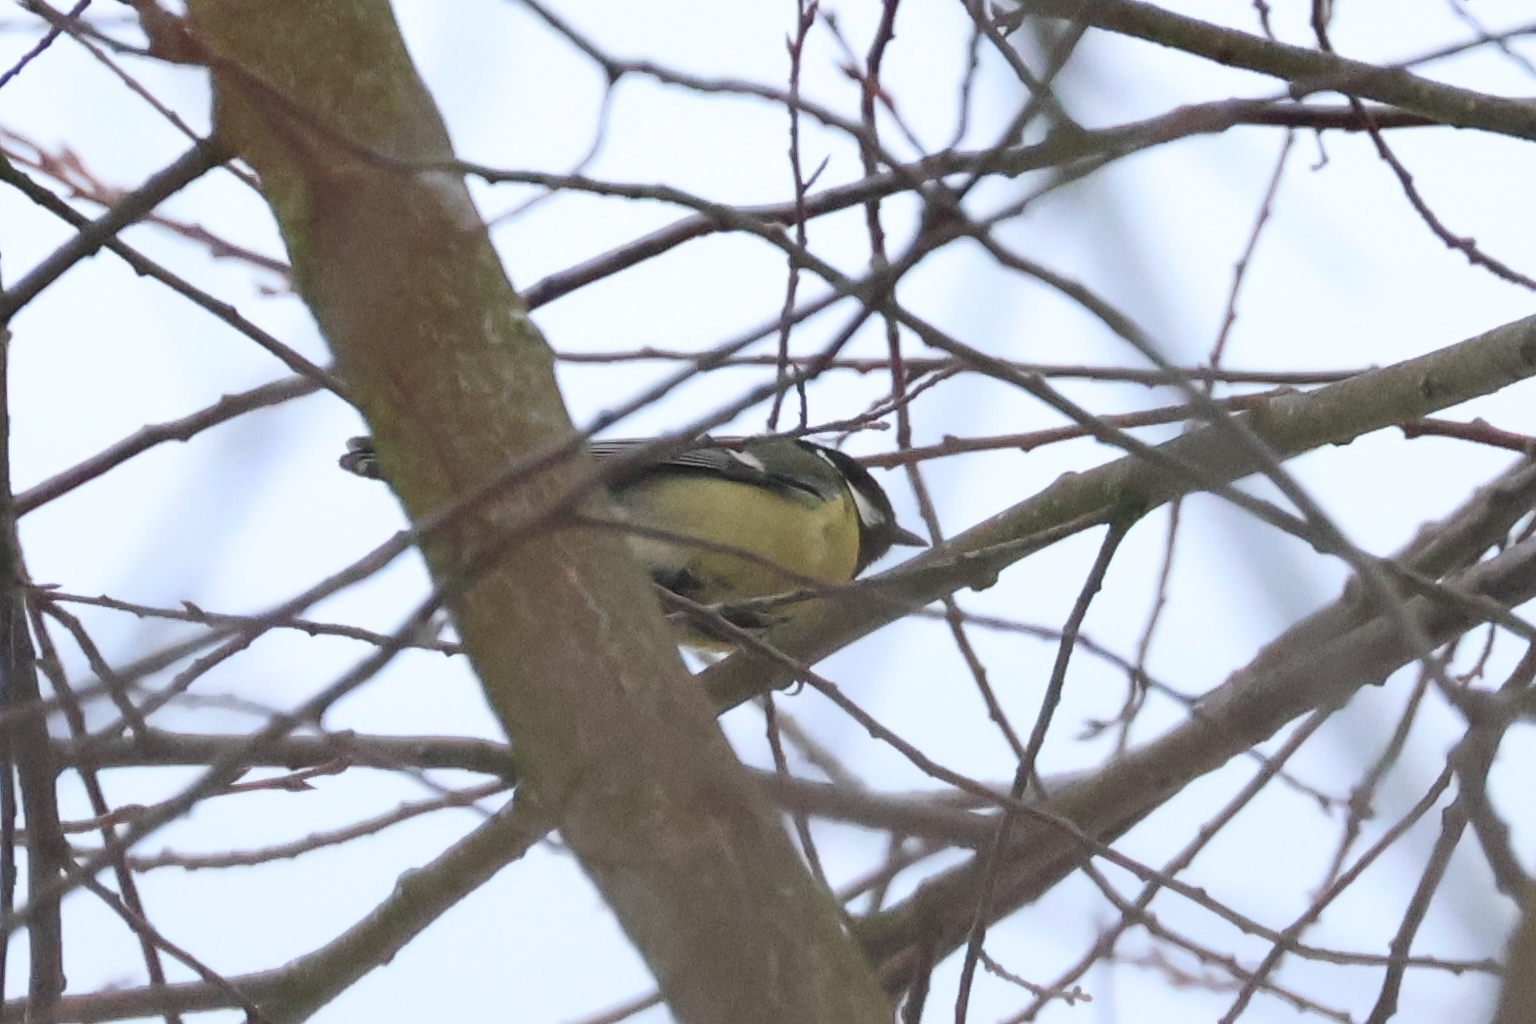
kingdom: Animalia
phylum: Chordata
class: Aves
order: Passeriformes
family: Paridae
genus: Parus
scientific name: Parus major
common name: Great tit
